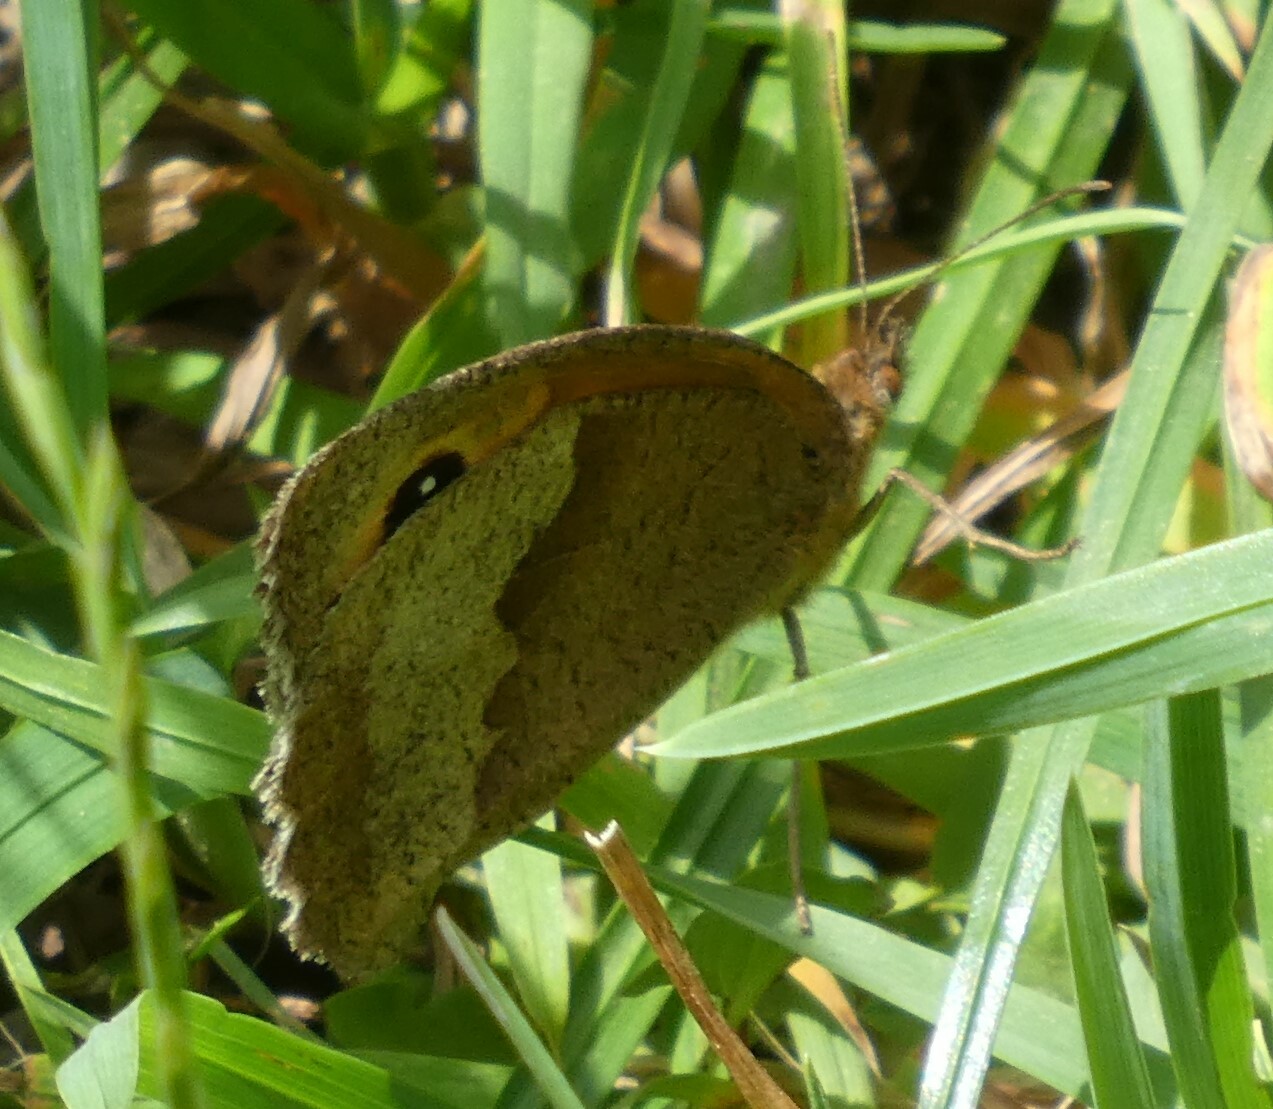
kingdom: Animalia
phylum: Arthropoda
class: Insecta
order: Lepidoptera
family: Nymphalidae
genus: Maniola
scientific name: Maniola jurtina
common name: Meadow brown
